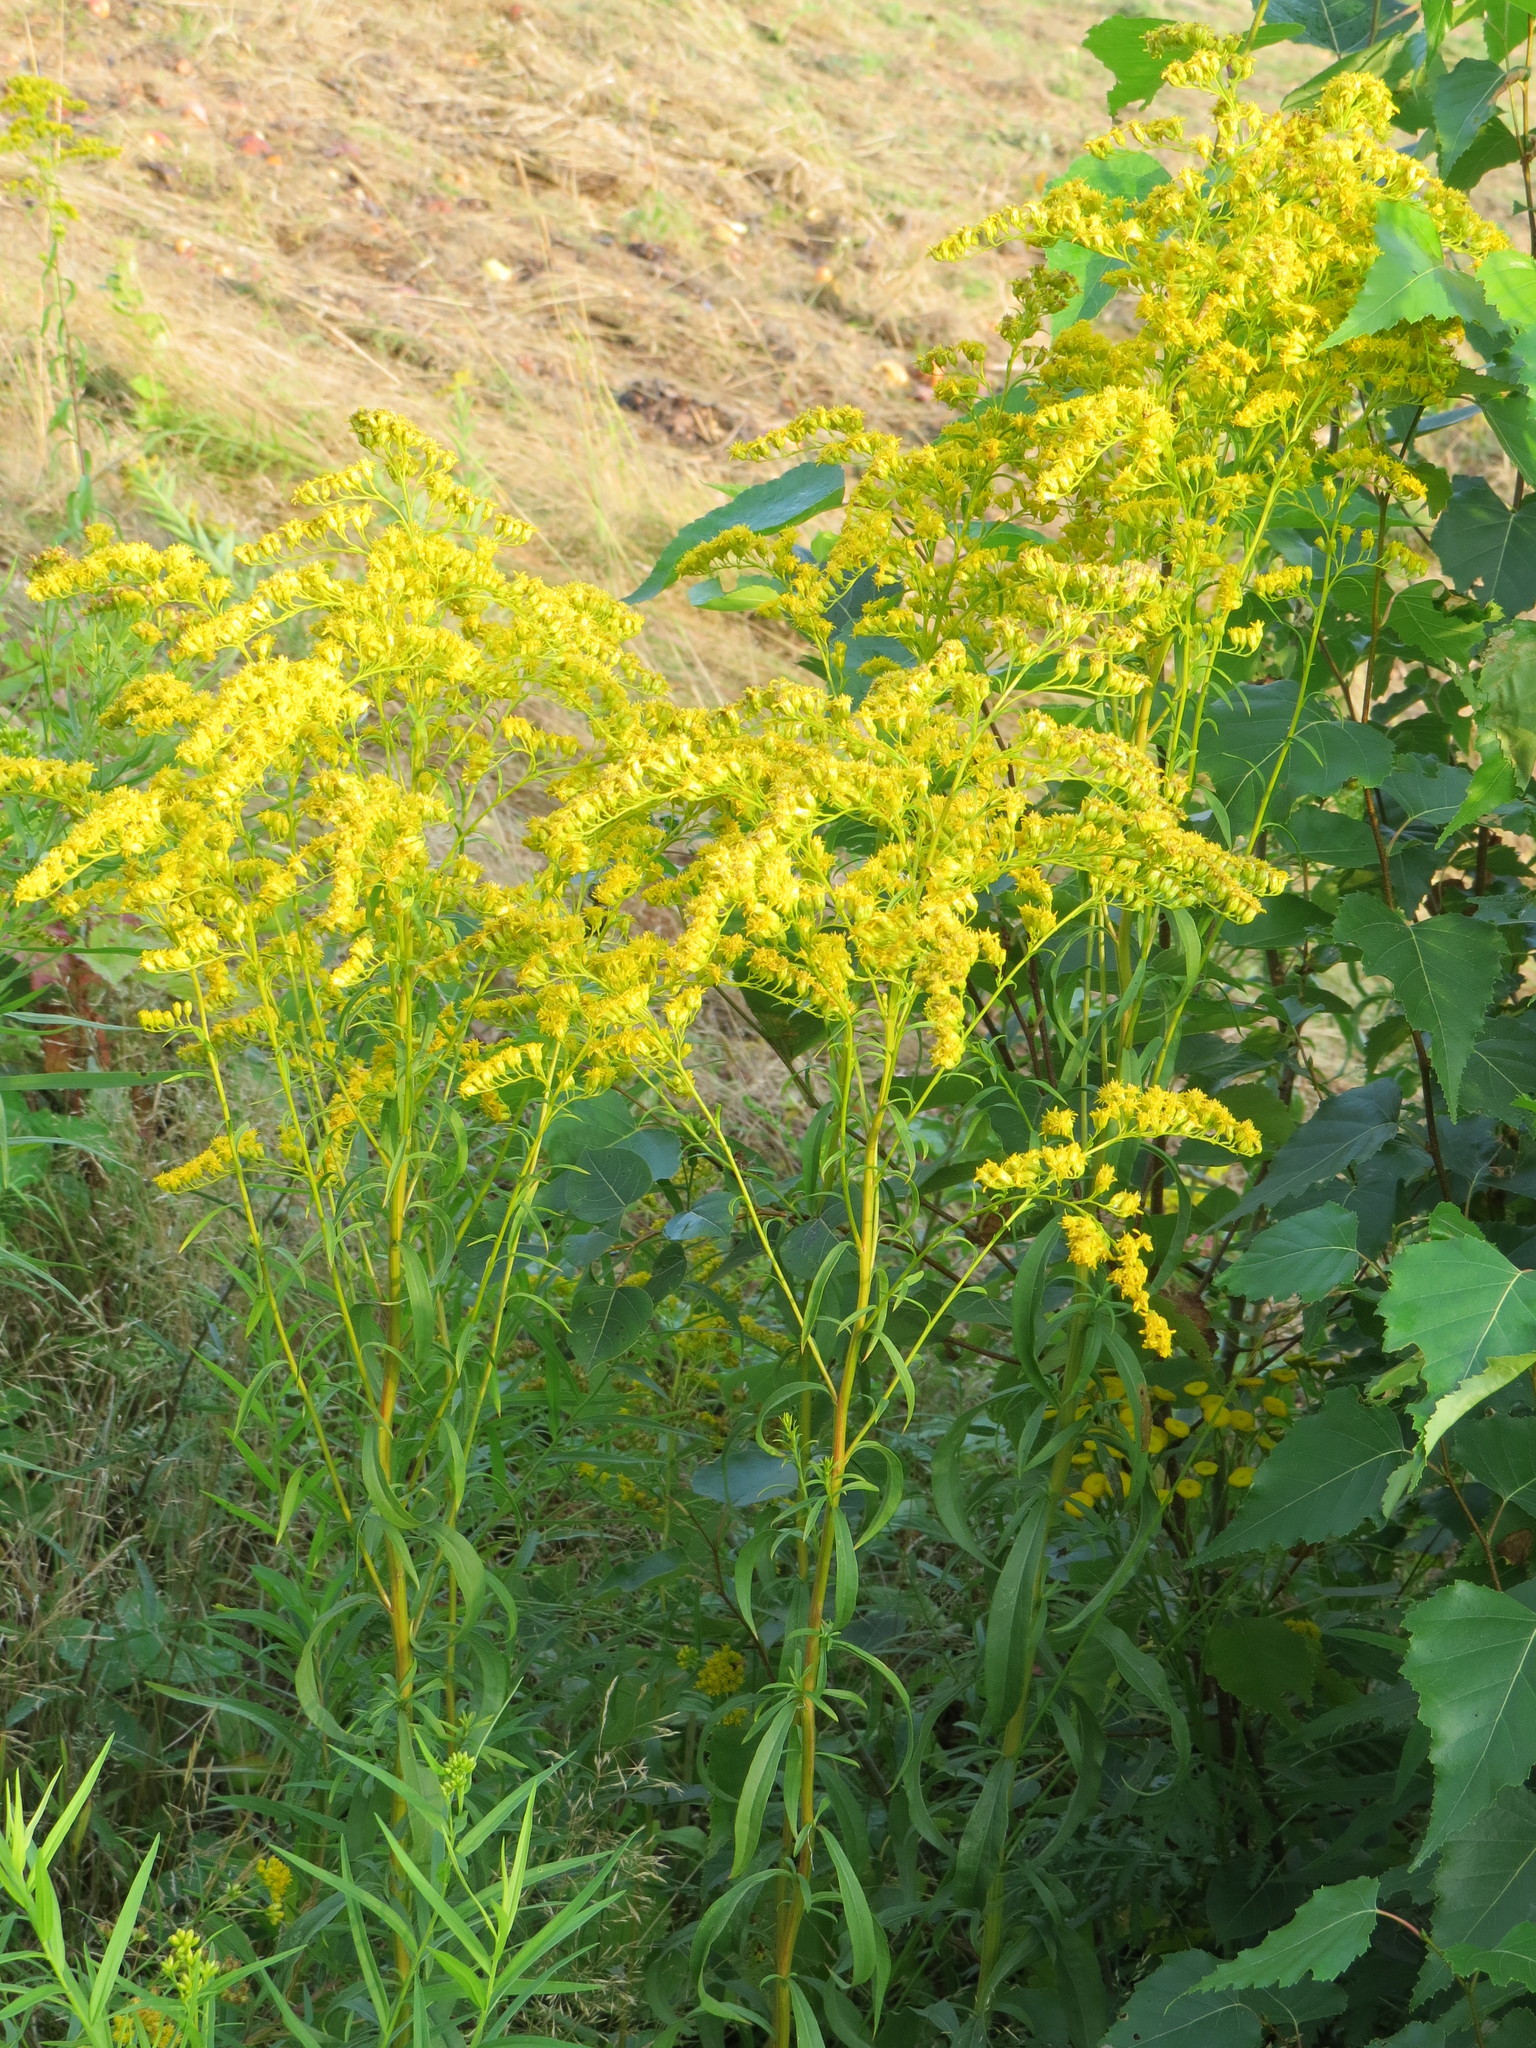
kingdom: Plantae
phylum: Tracheophyta
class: Magnoliopsida
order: Asterales
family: Asteraceae
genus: Solidago
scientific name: Solidago juncea
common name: Early goldenrod
